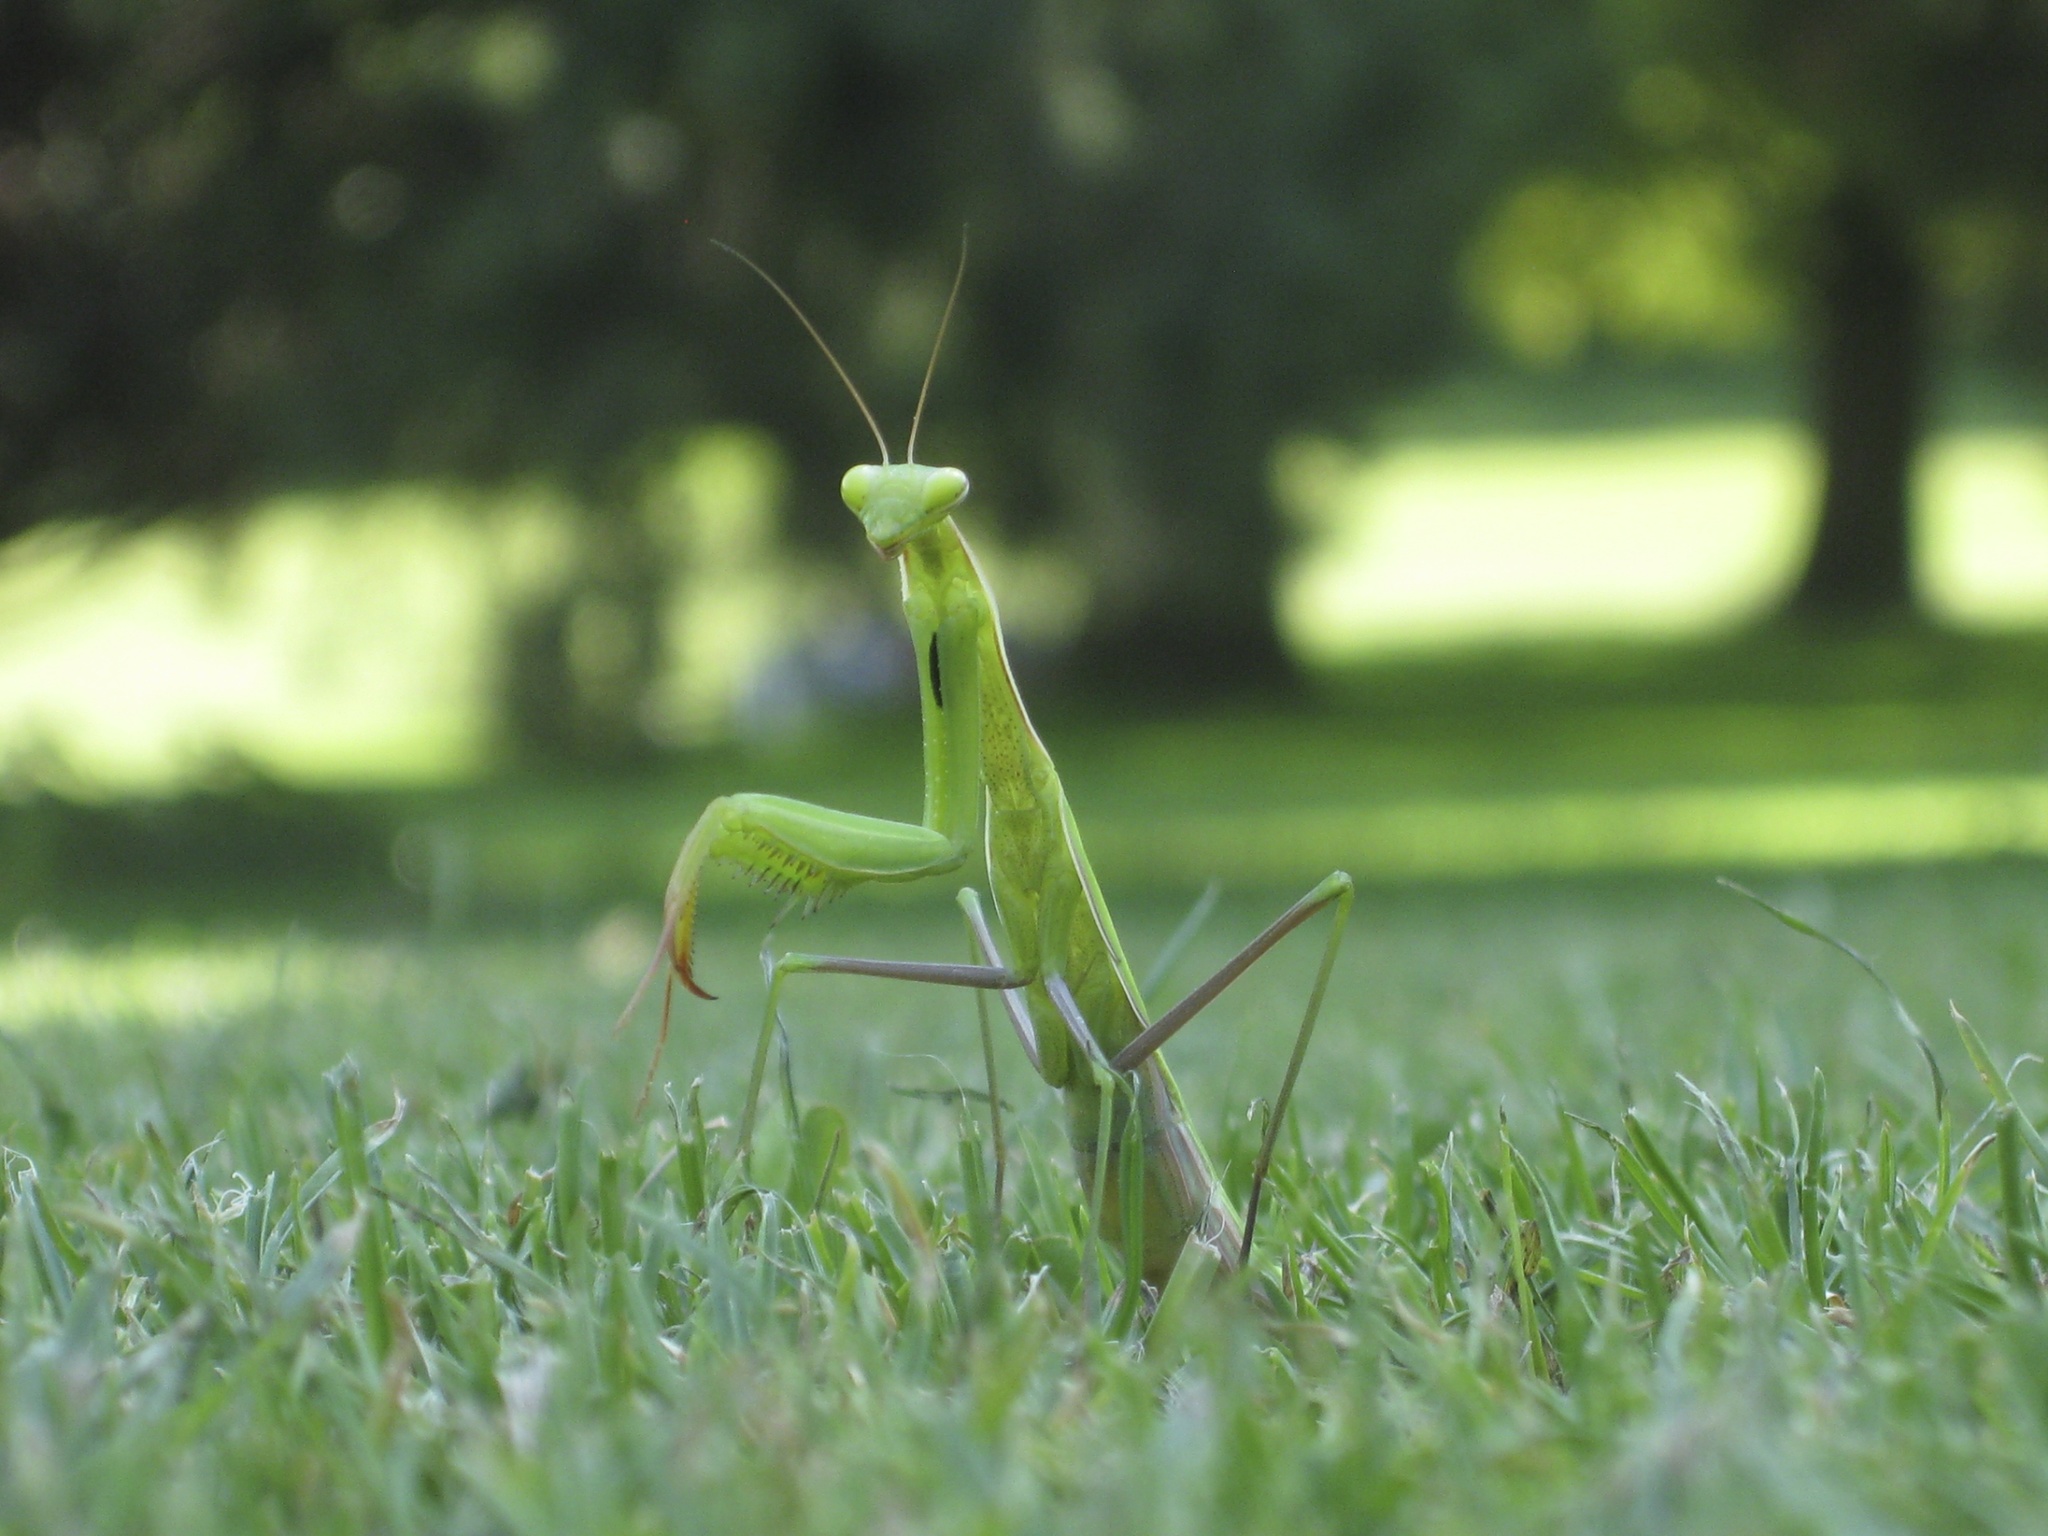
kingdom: Animalia
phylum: Arthropoda
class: Insecta
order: Mantodea
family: Mantidae
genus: Mantis
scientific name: Mantis religiosa
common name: Praying mantis
